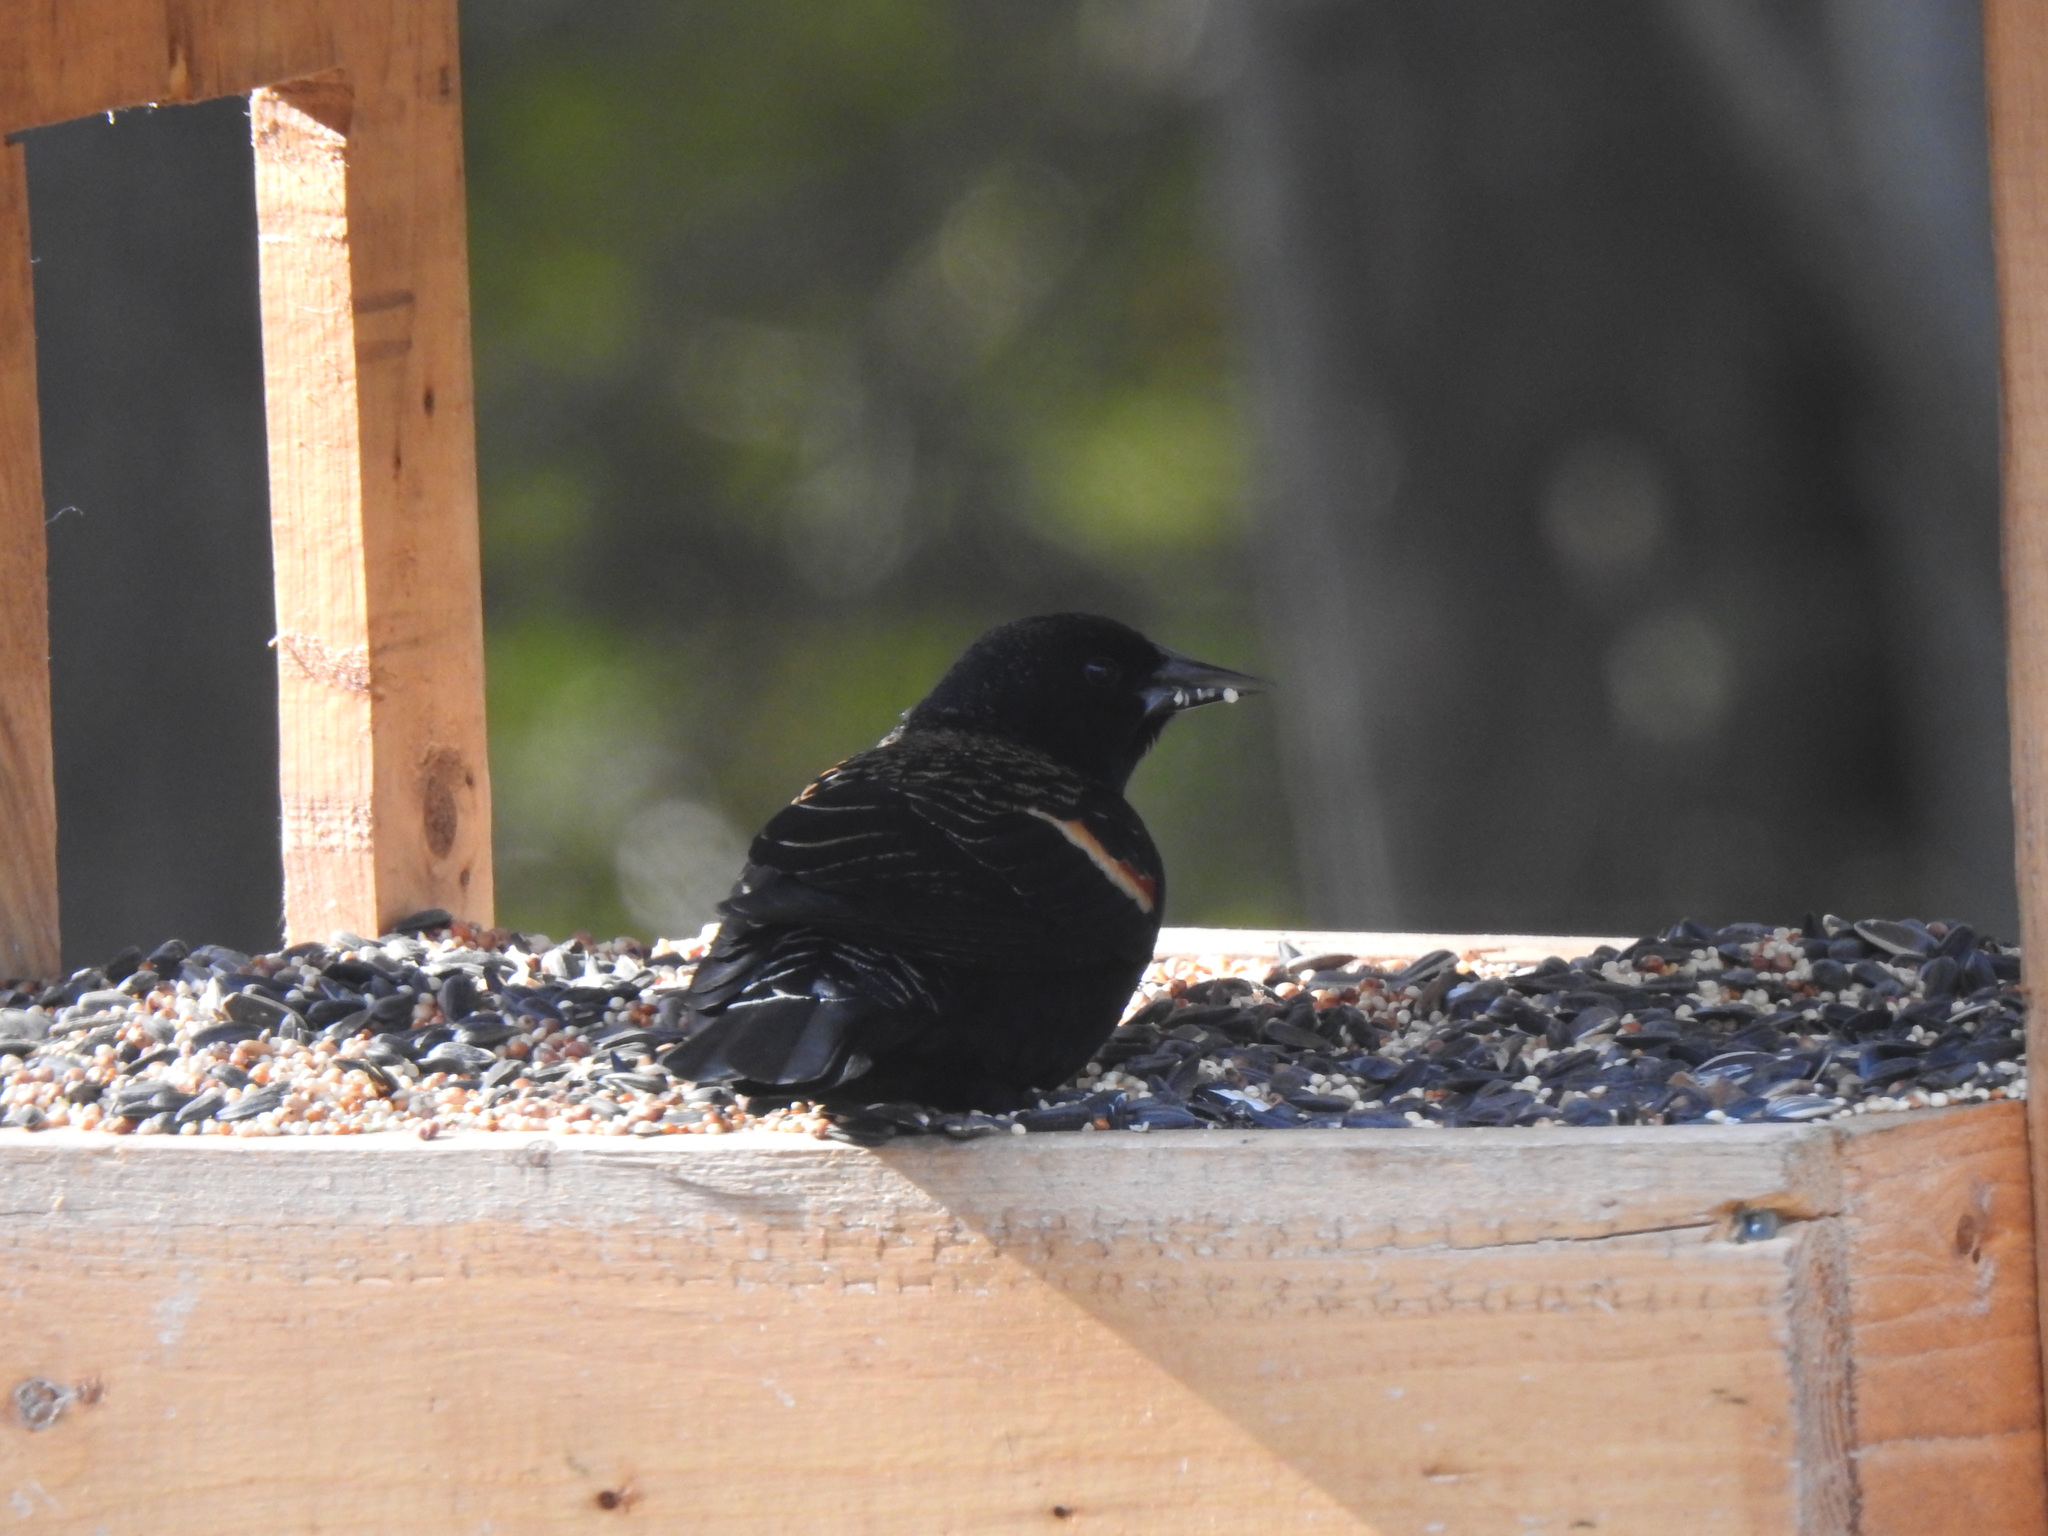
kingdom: Animalia
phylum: Chordata
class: Aves
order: Passeriformes
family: Icteridae
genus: Agelaius
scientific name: Agelaius phoeniceus
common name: Red-winged blackbird
